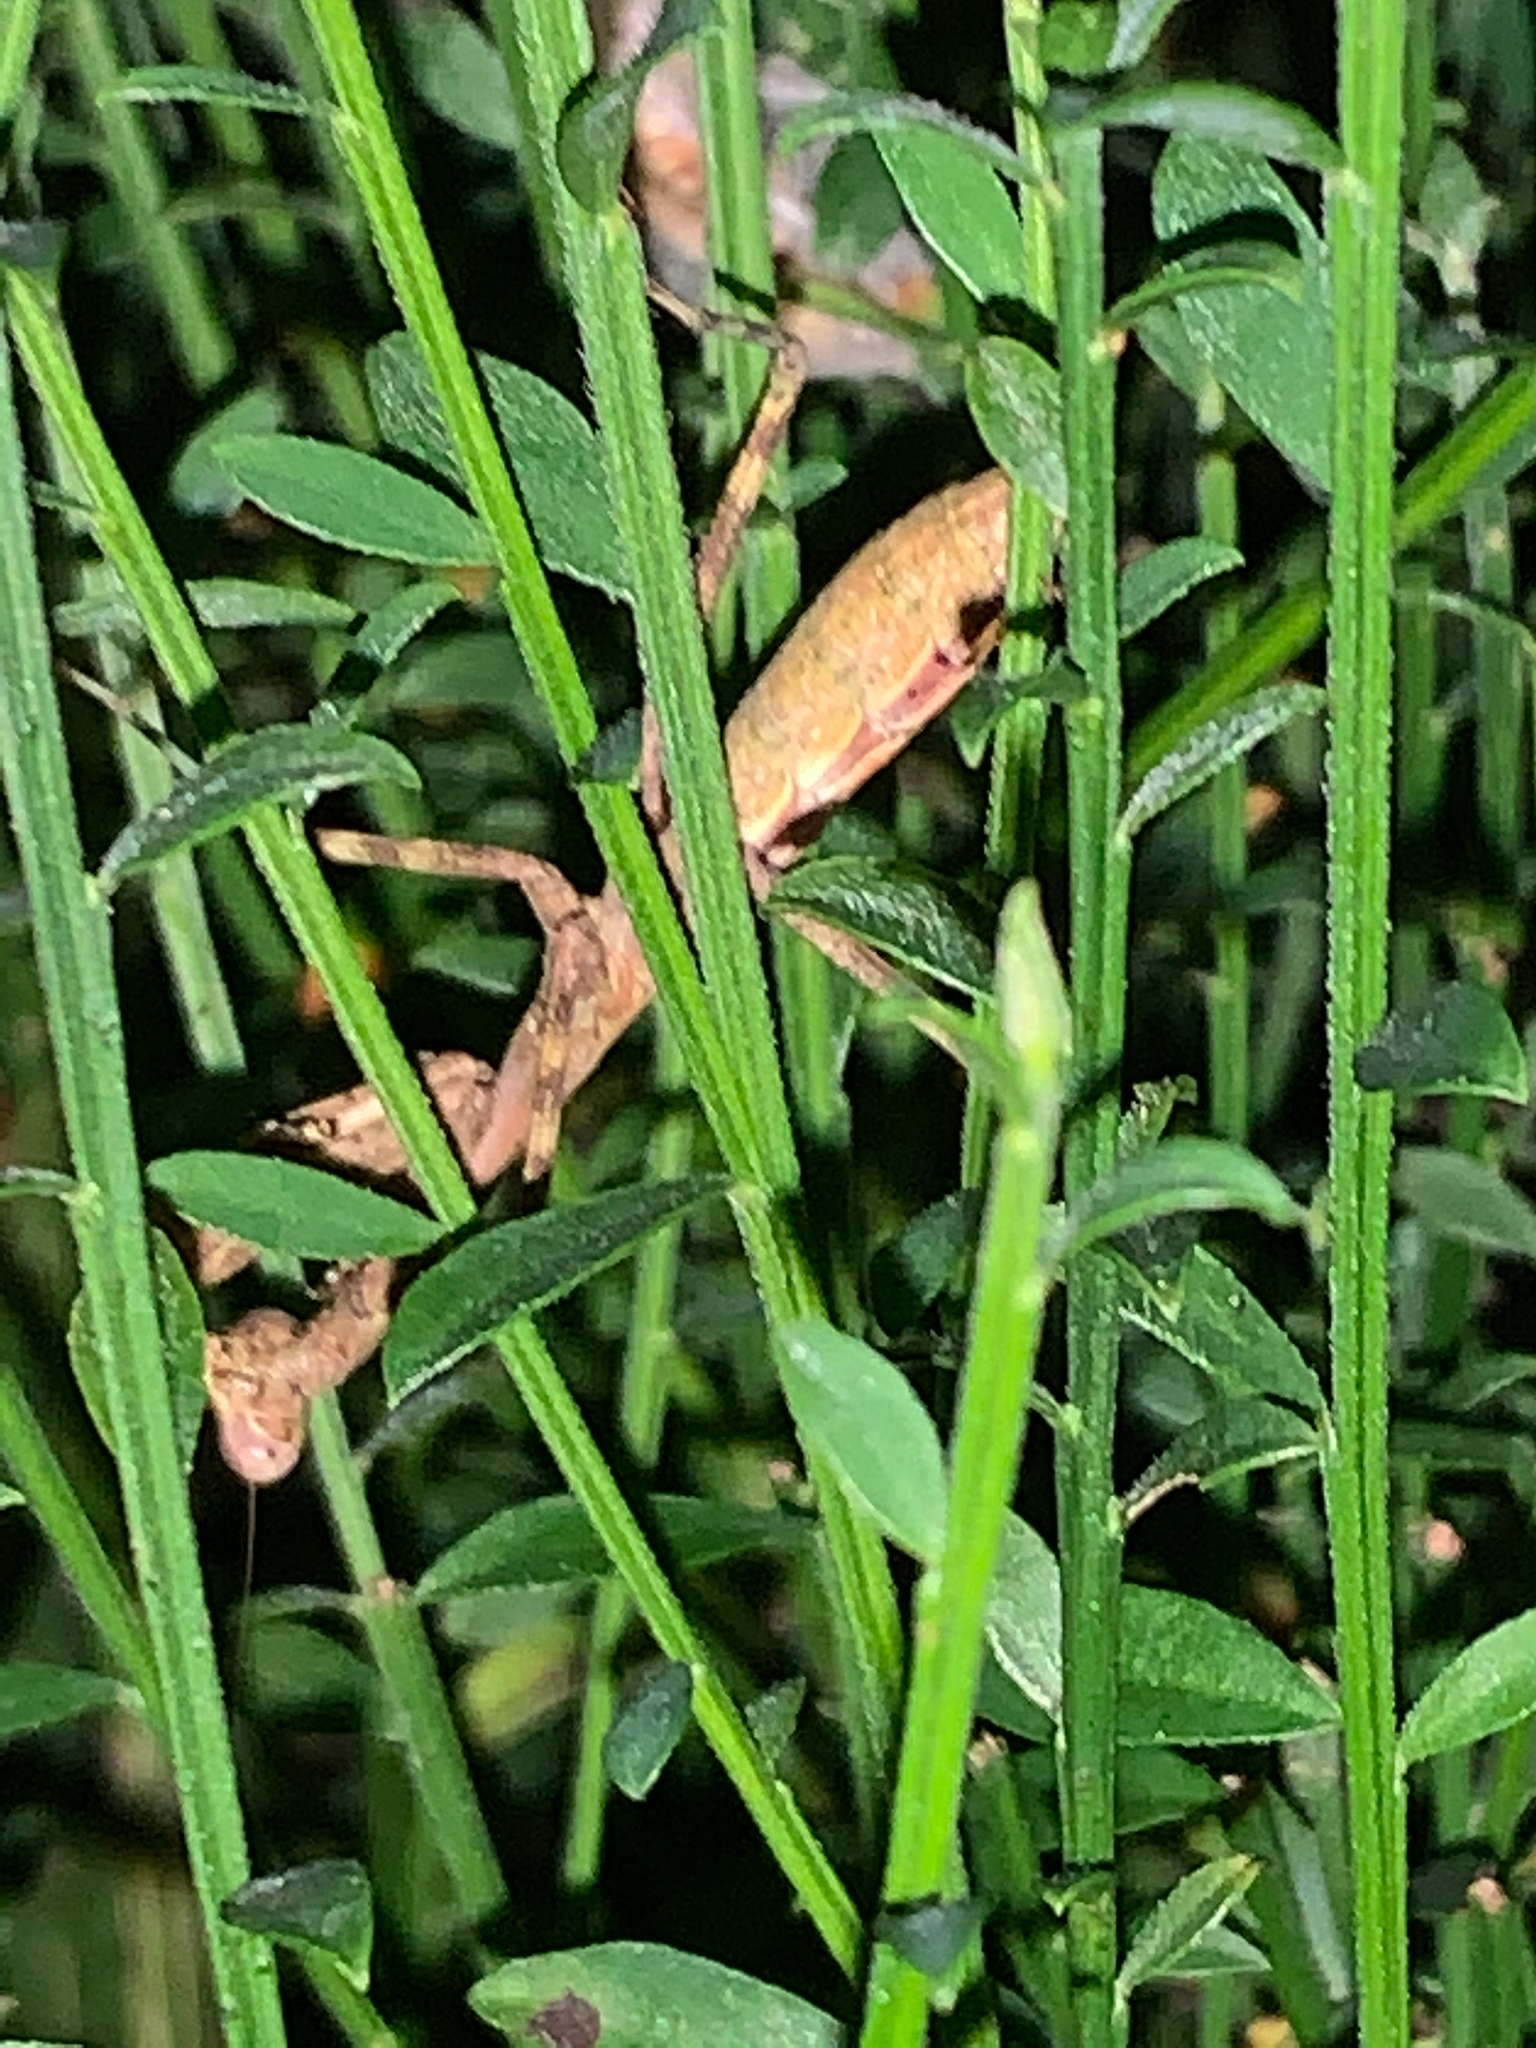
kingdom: Animalia
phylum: Arthropoda
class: Insecta
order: Mantodea
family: Mantidae
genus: Stagmomantis
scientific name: Stagmomantis carolina
